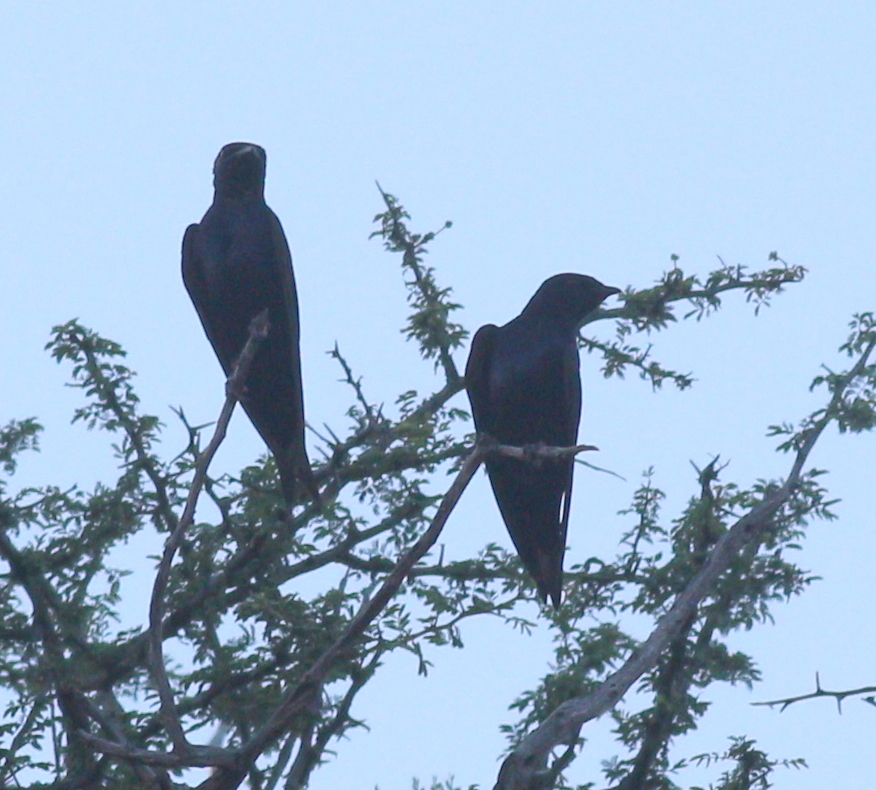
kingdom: Animalia
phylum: Chordata
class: Aves
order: Passeriformes
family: Hirundinidae
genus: Progne
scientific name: Progne elegans
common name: Southern martin
